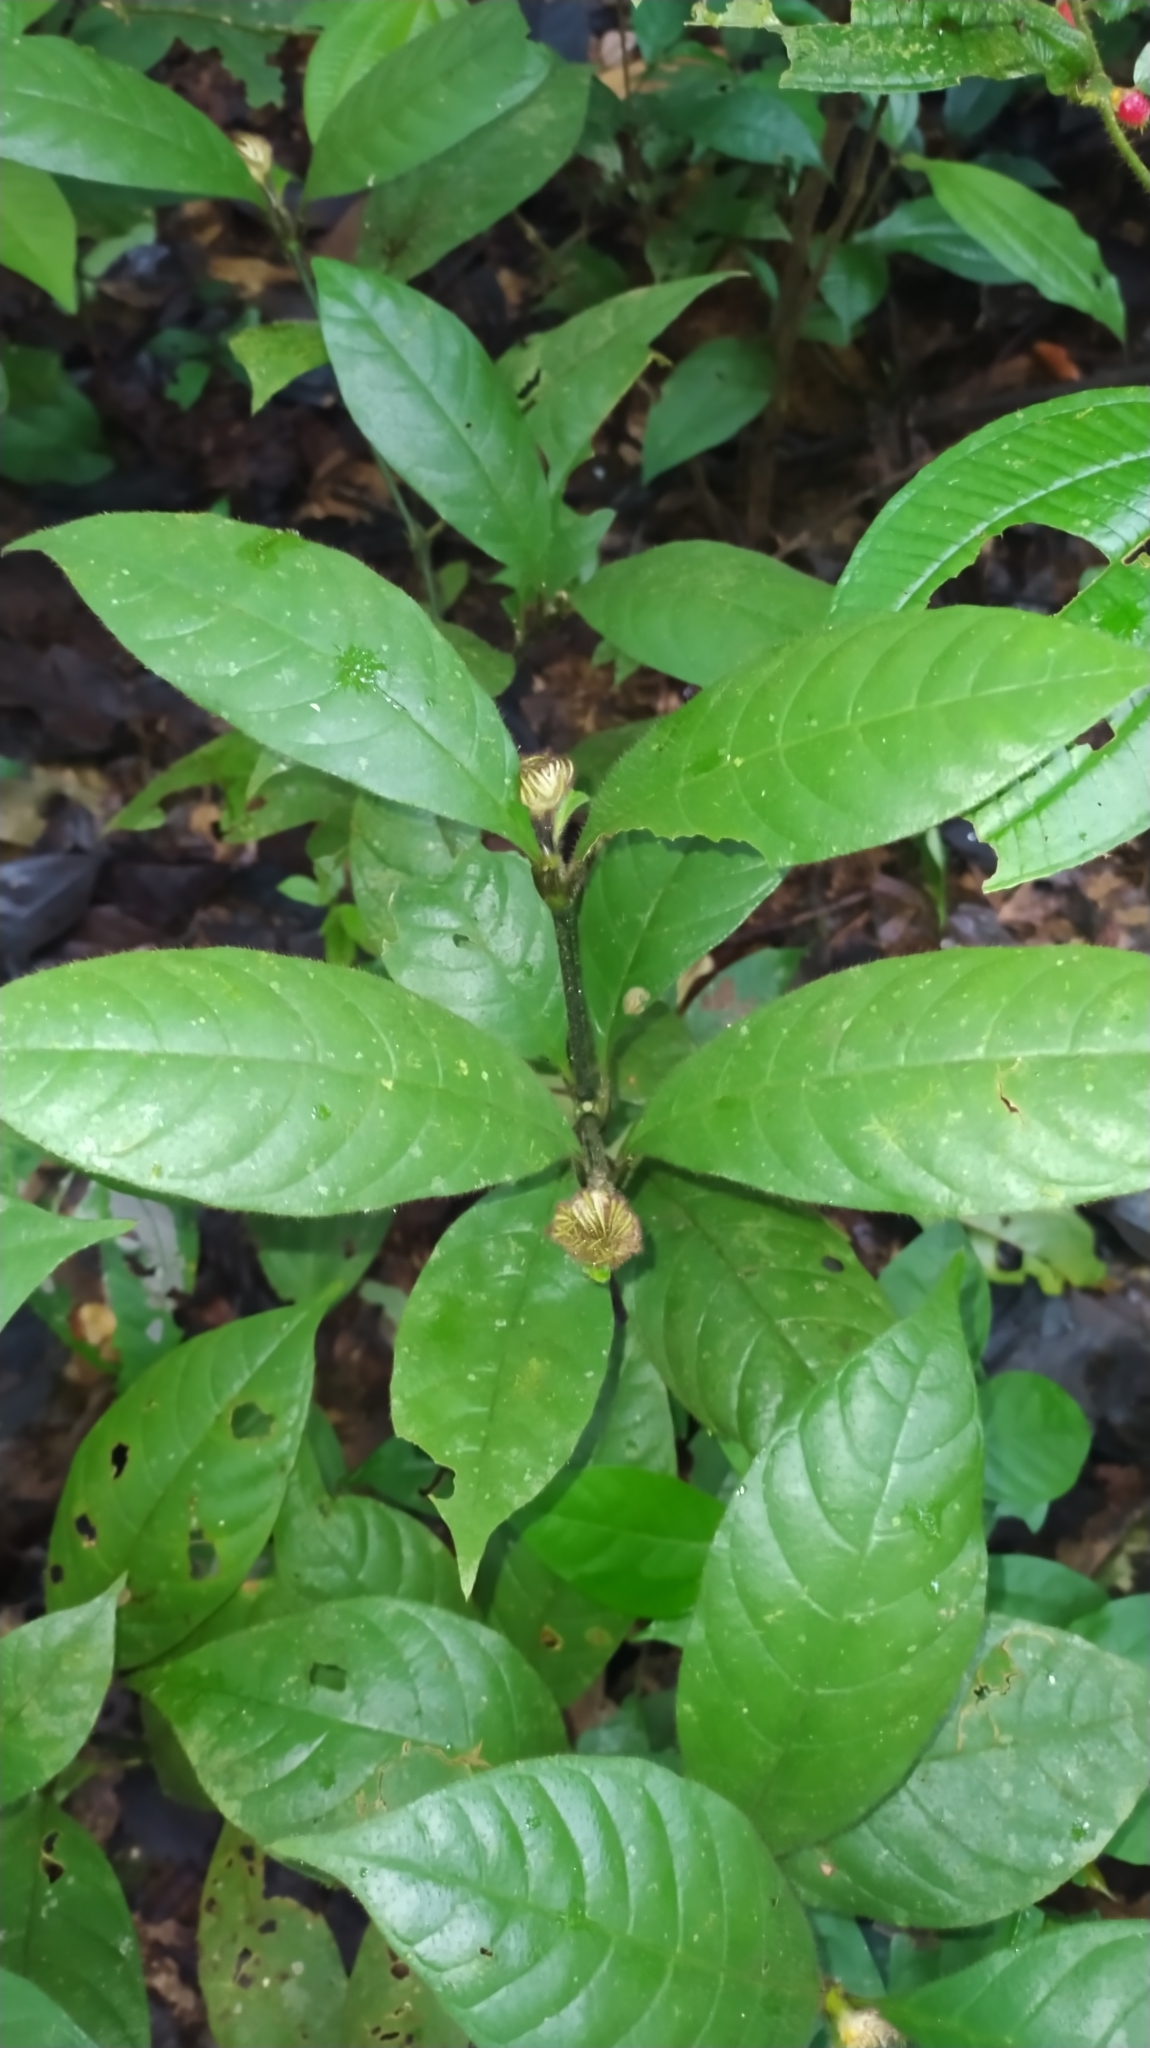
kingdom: Plantae
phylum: Tracheophyta
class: Magnoliopsida
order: Gentianales
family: Rubiaceae
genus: Palicourea
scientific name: Palicourea glabra
